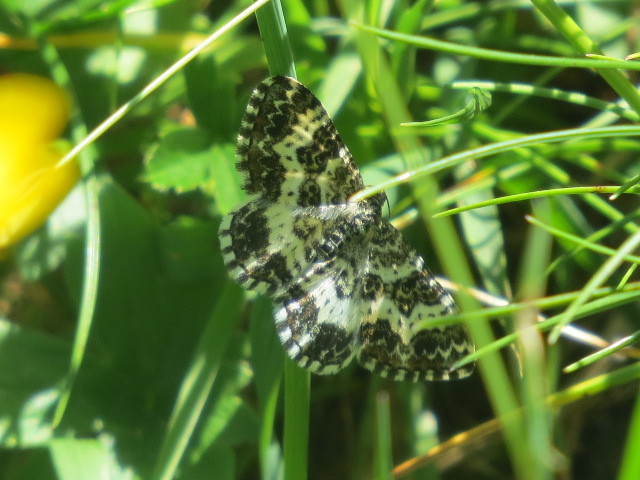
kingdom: Animalia
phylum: Arthropoda
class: Insecta
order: Lepidoptera
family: Geometridae
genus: Epirrhoe
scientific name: Epirrhoe tristata
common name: Small argent & sable
